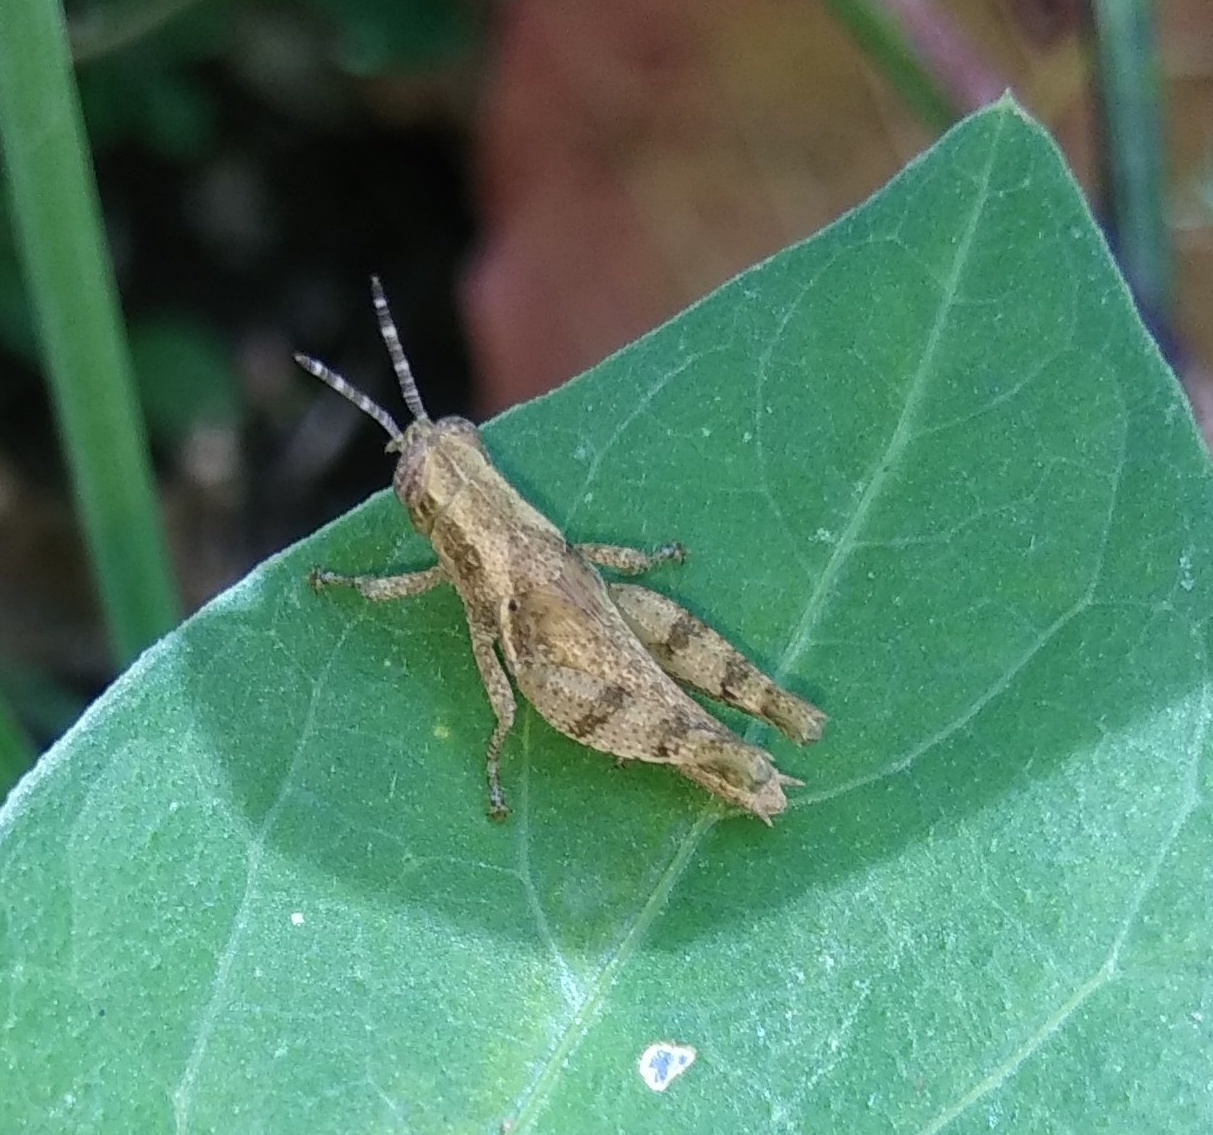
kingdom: Animalia
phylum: Arthropoda
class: Insecta
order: Orthoptera
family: Acrididae
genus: Xenocatantops
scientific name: Xenocatantops karnyi
